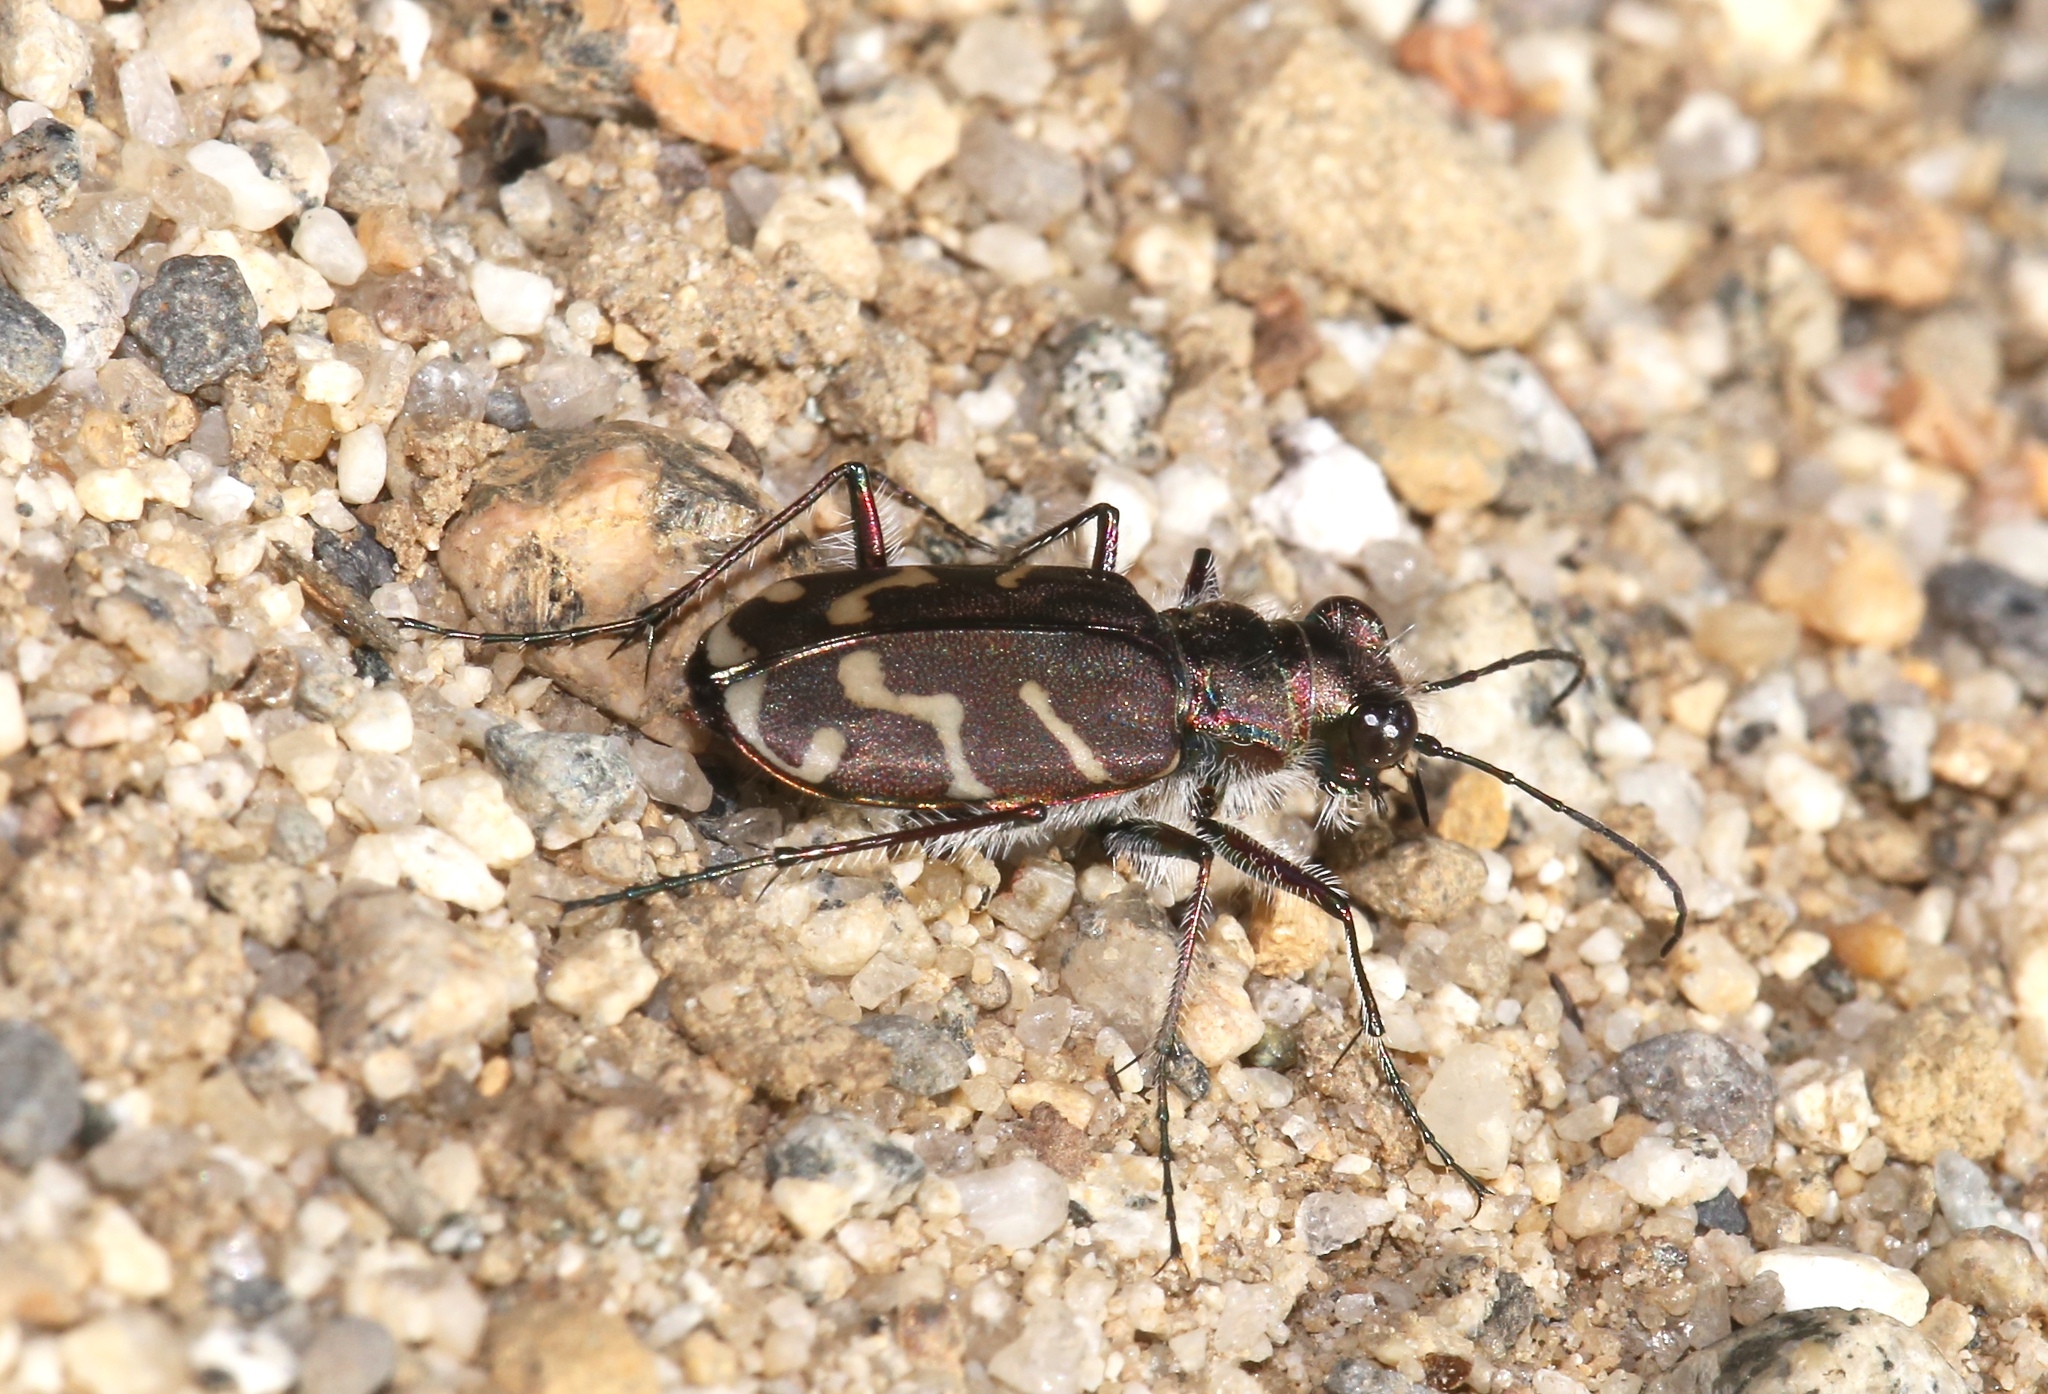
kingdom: Animalia
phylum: Arthropoda
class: Insecta
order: Coleoptera
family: Carabidae
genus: Cicindela
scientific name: Cicindela tranquebarica
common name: Oblique-lined tiger beetle
